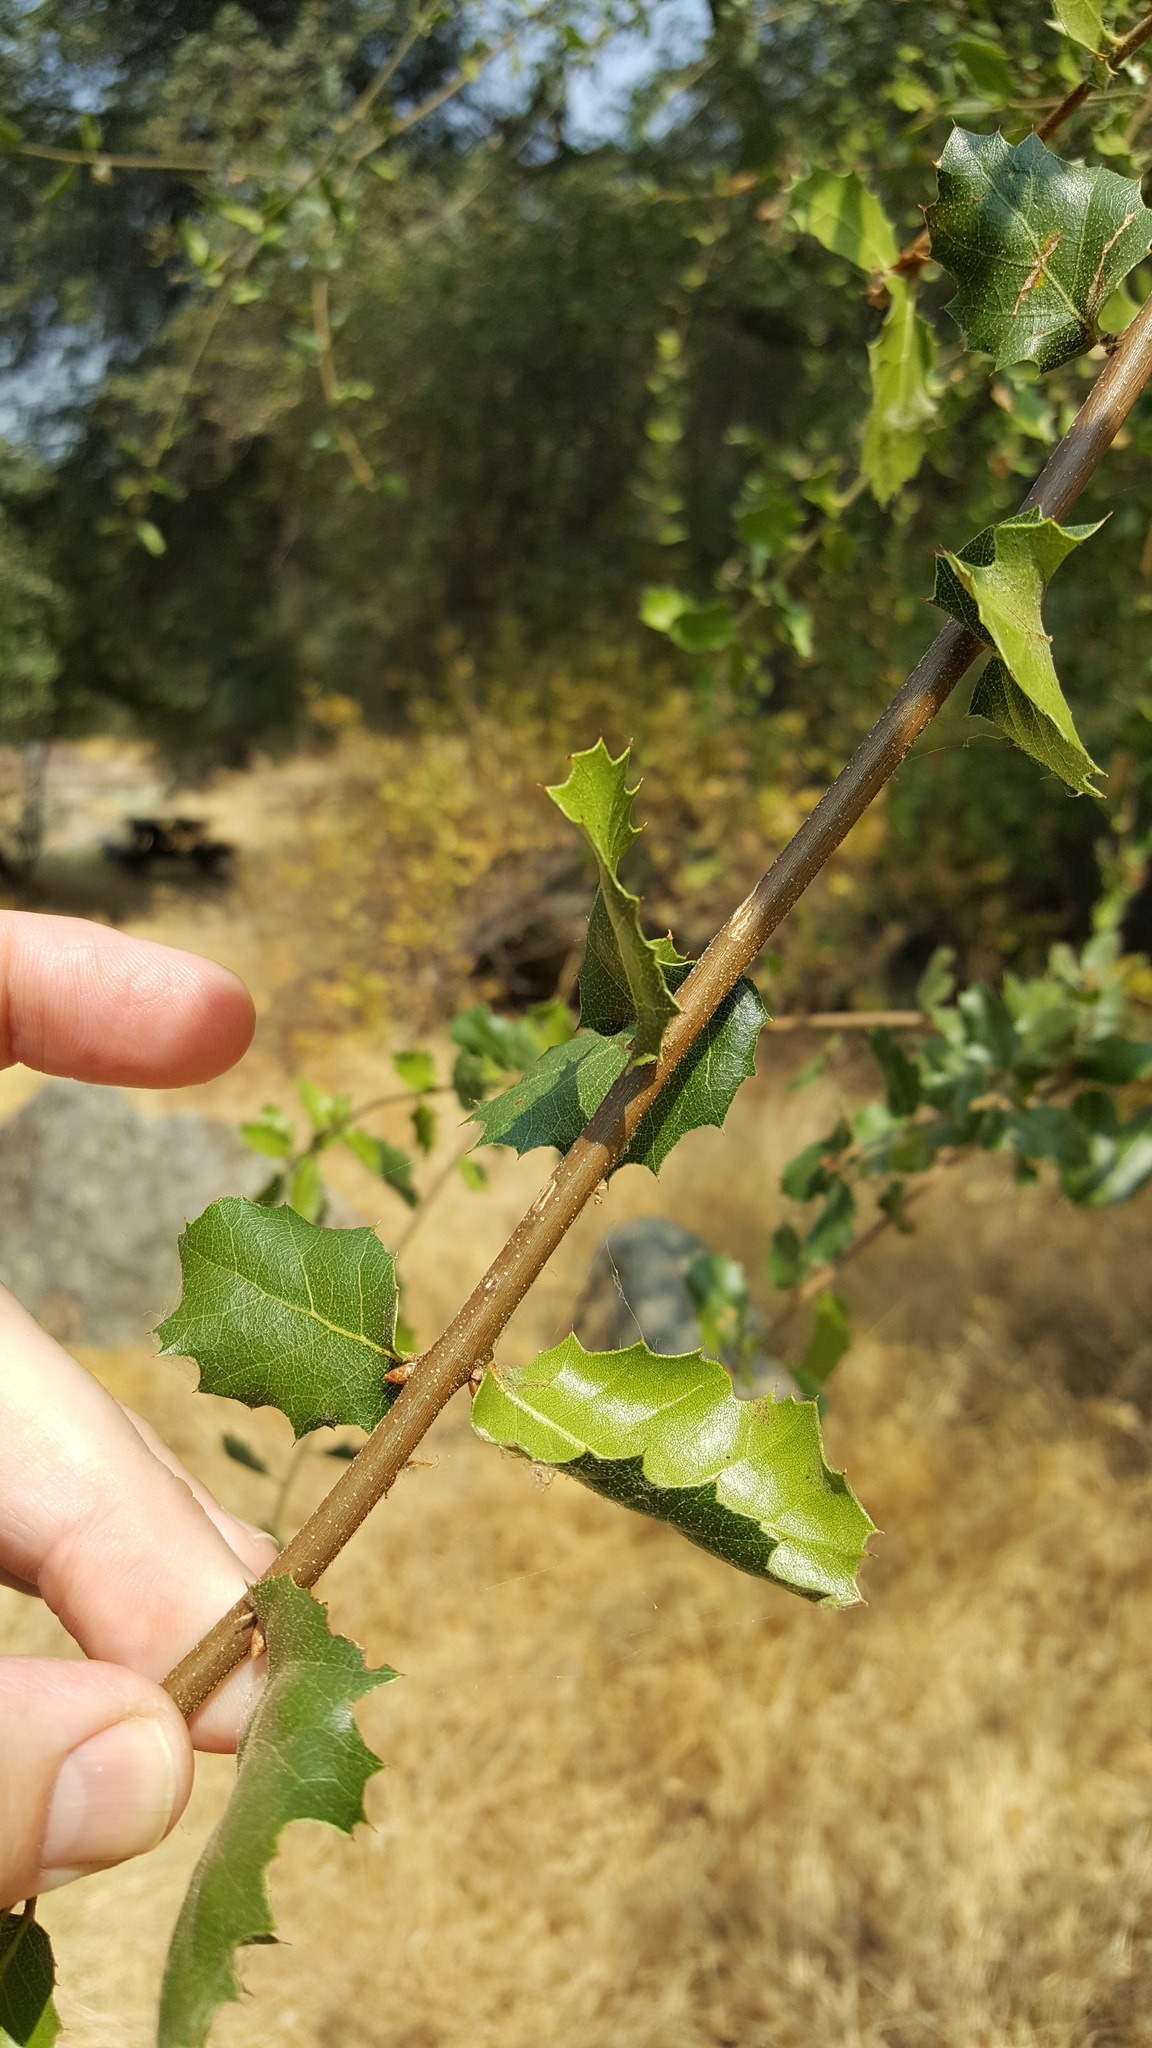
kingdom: Plantae
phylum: Tracheophyta
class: Magnoliopsida
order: Fagales
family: Fagaceae
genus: Quercus
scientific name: Quercus
